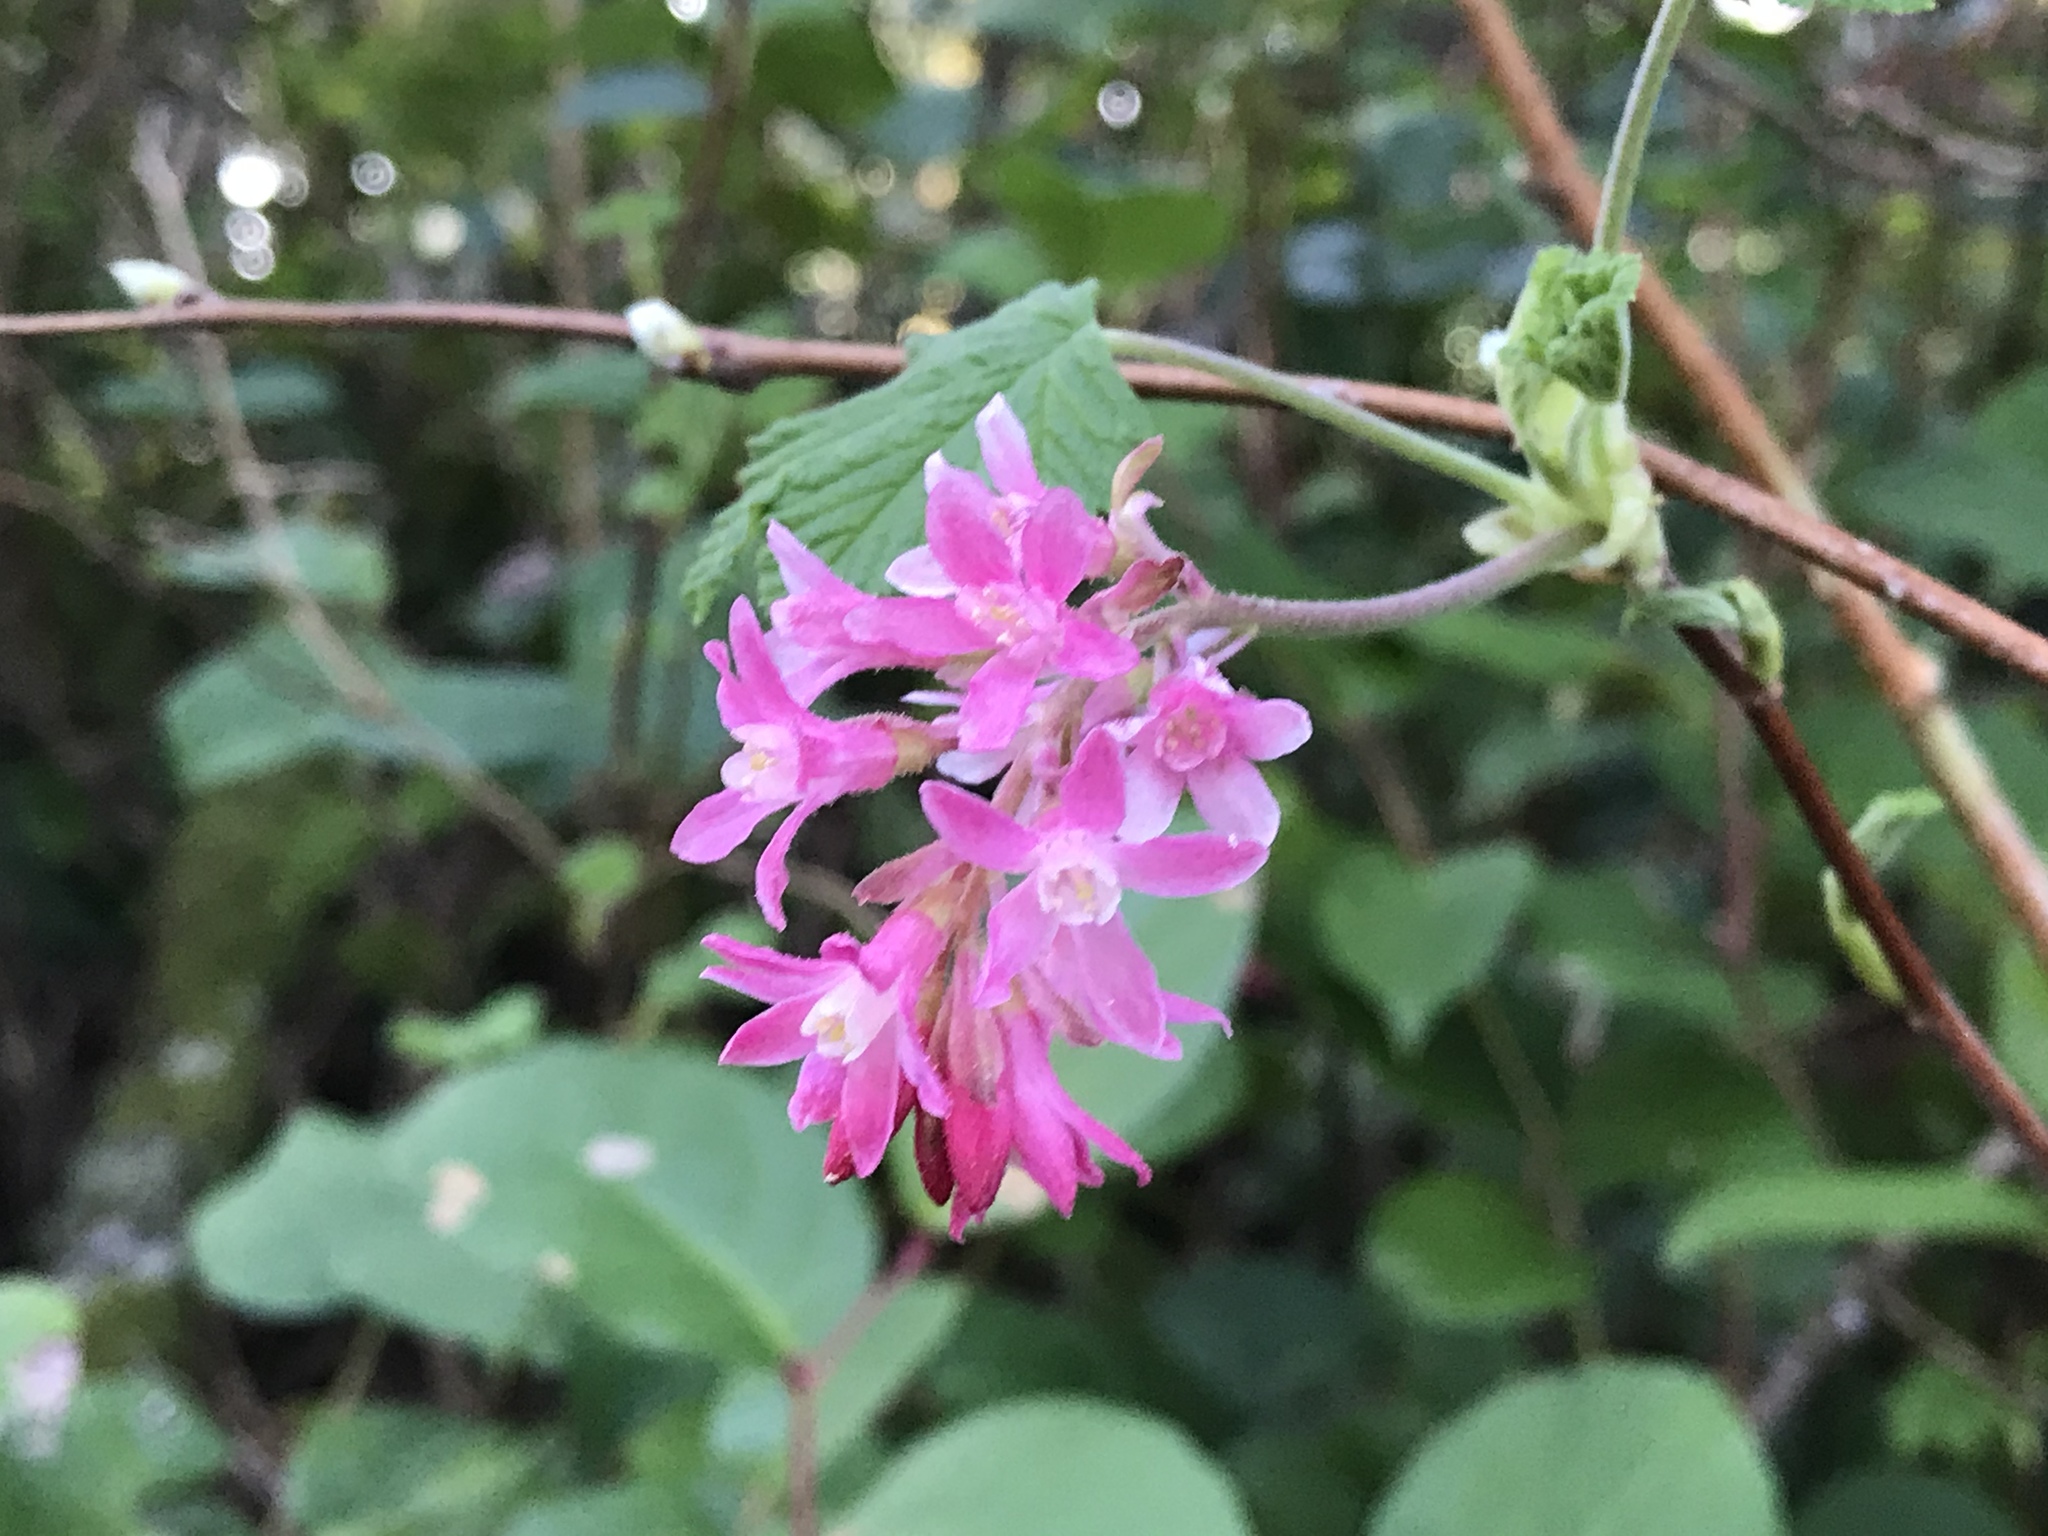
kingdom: Plantae
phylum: Tracheophyta
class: Magnoliopsida
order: Saxifragales
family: Grossulariaceae
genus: Ribes
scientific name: Ribes sanguineum
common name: Flowering currant
